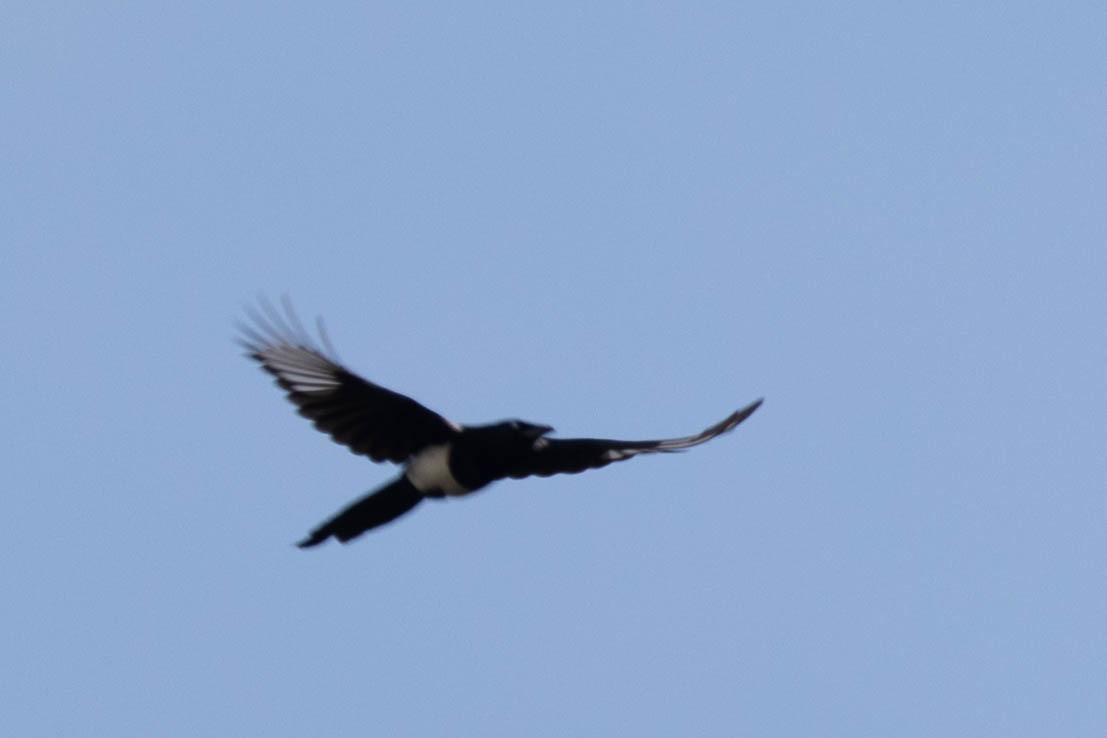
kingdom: Animalia
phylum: Chordata
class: Aves
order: Passeriformes
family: Corvidae
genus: Pica
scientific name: Pica hudsonia
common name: Black-billed magpie
